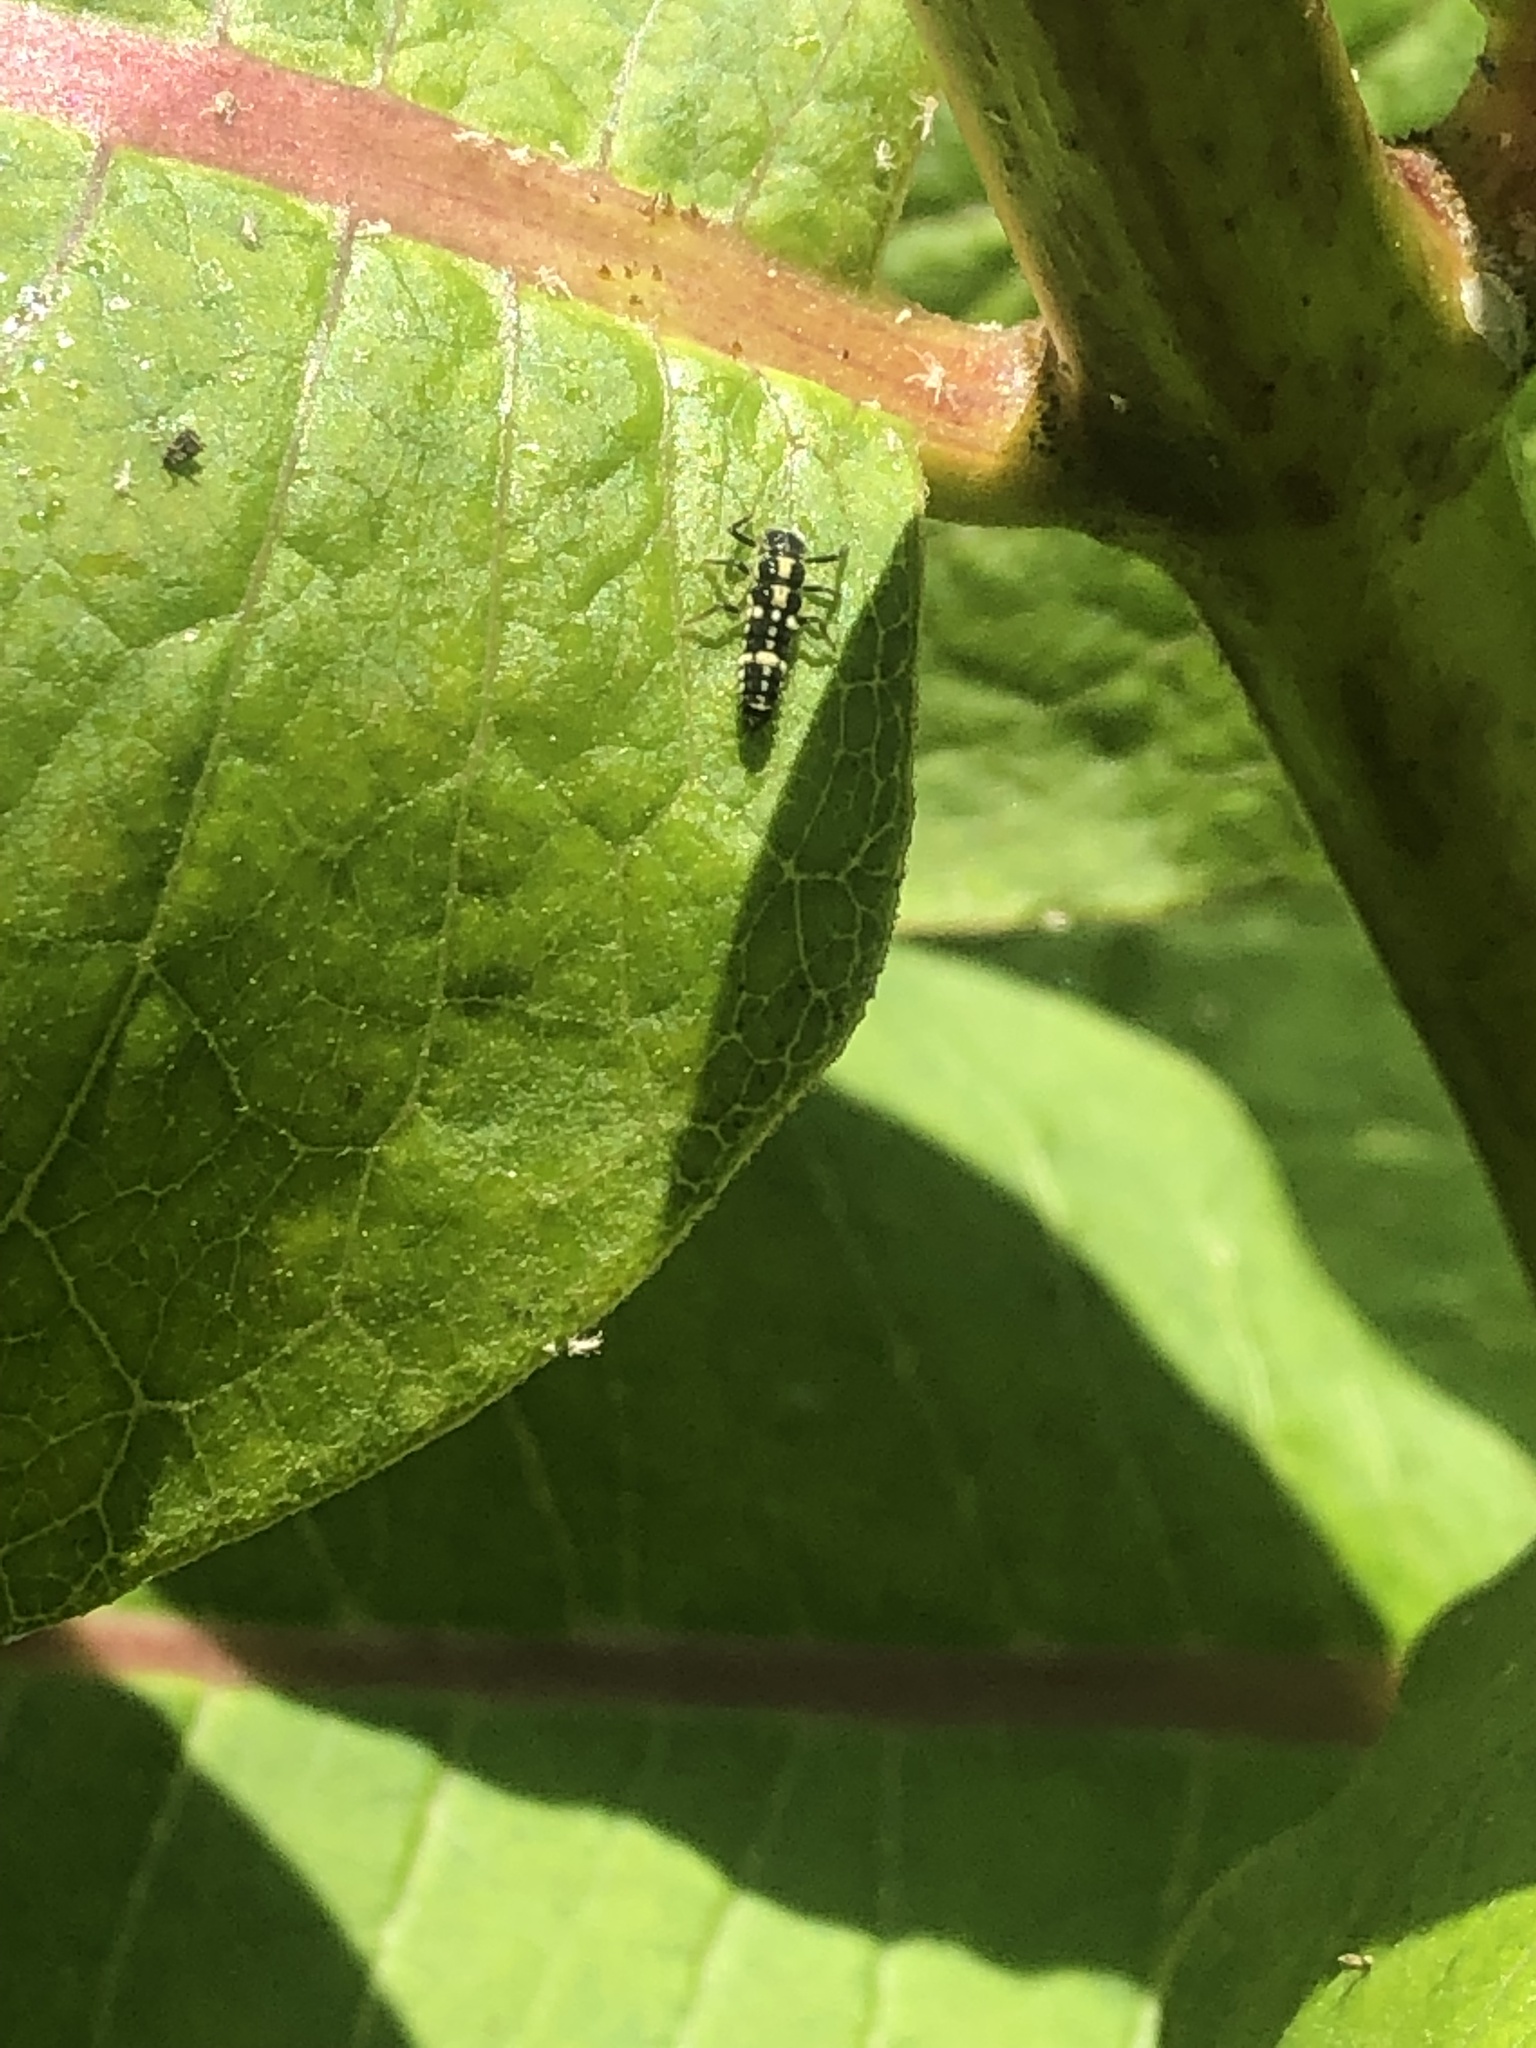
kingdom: Animalia
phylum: Arthropoda
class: Insecta
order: Coleoptera
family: Coccinellidae
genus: Propylaea
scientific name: Propylaea quatuordecimpunctata
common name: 14-spotted ladybird beetle
